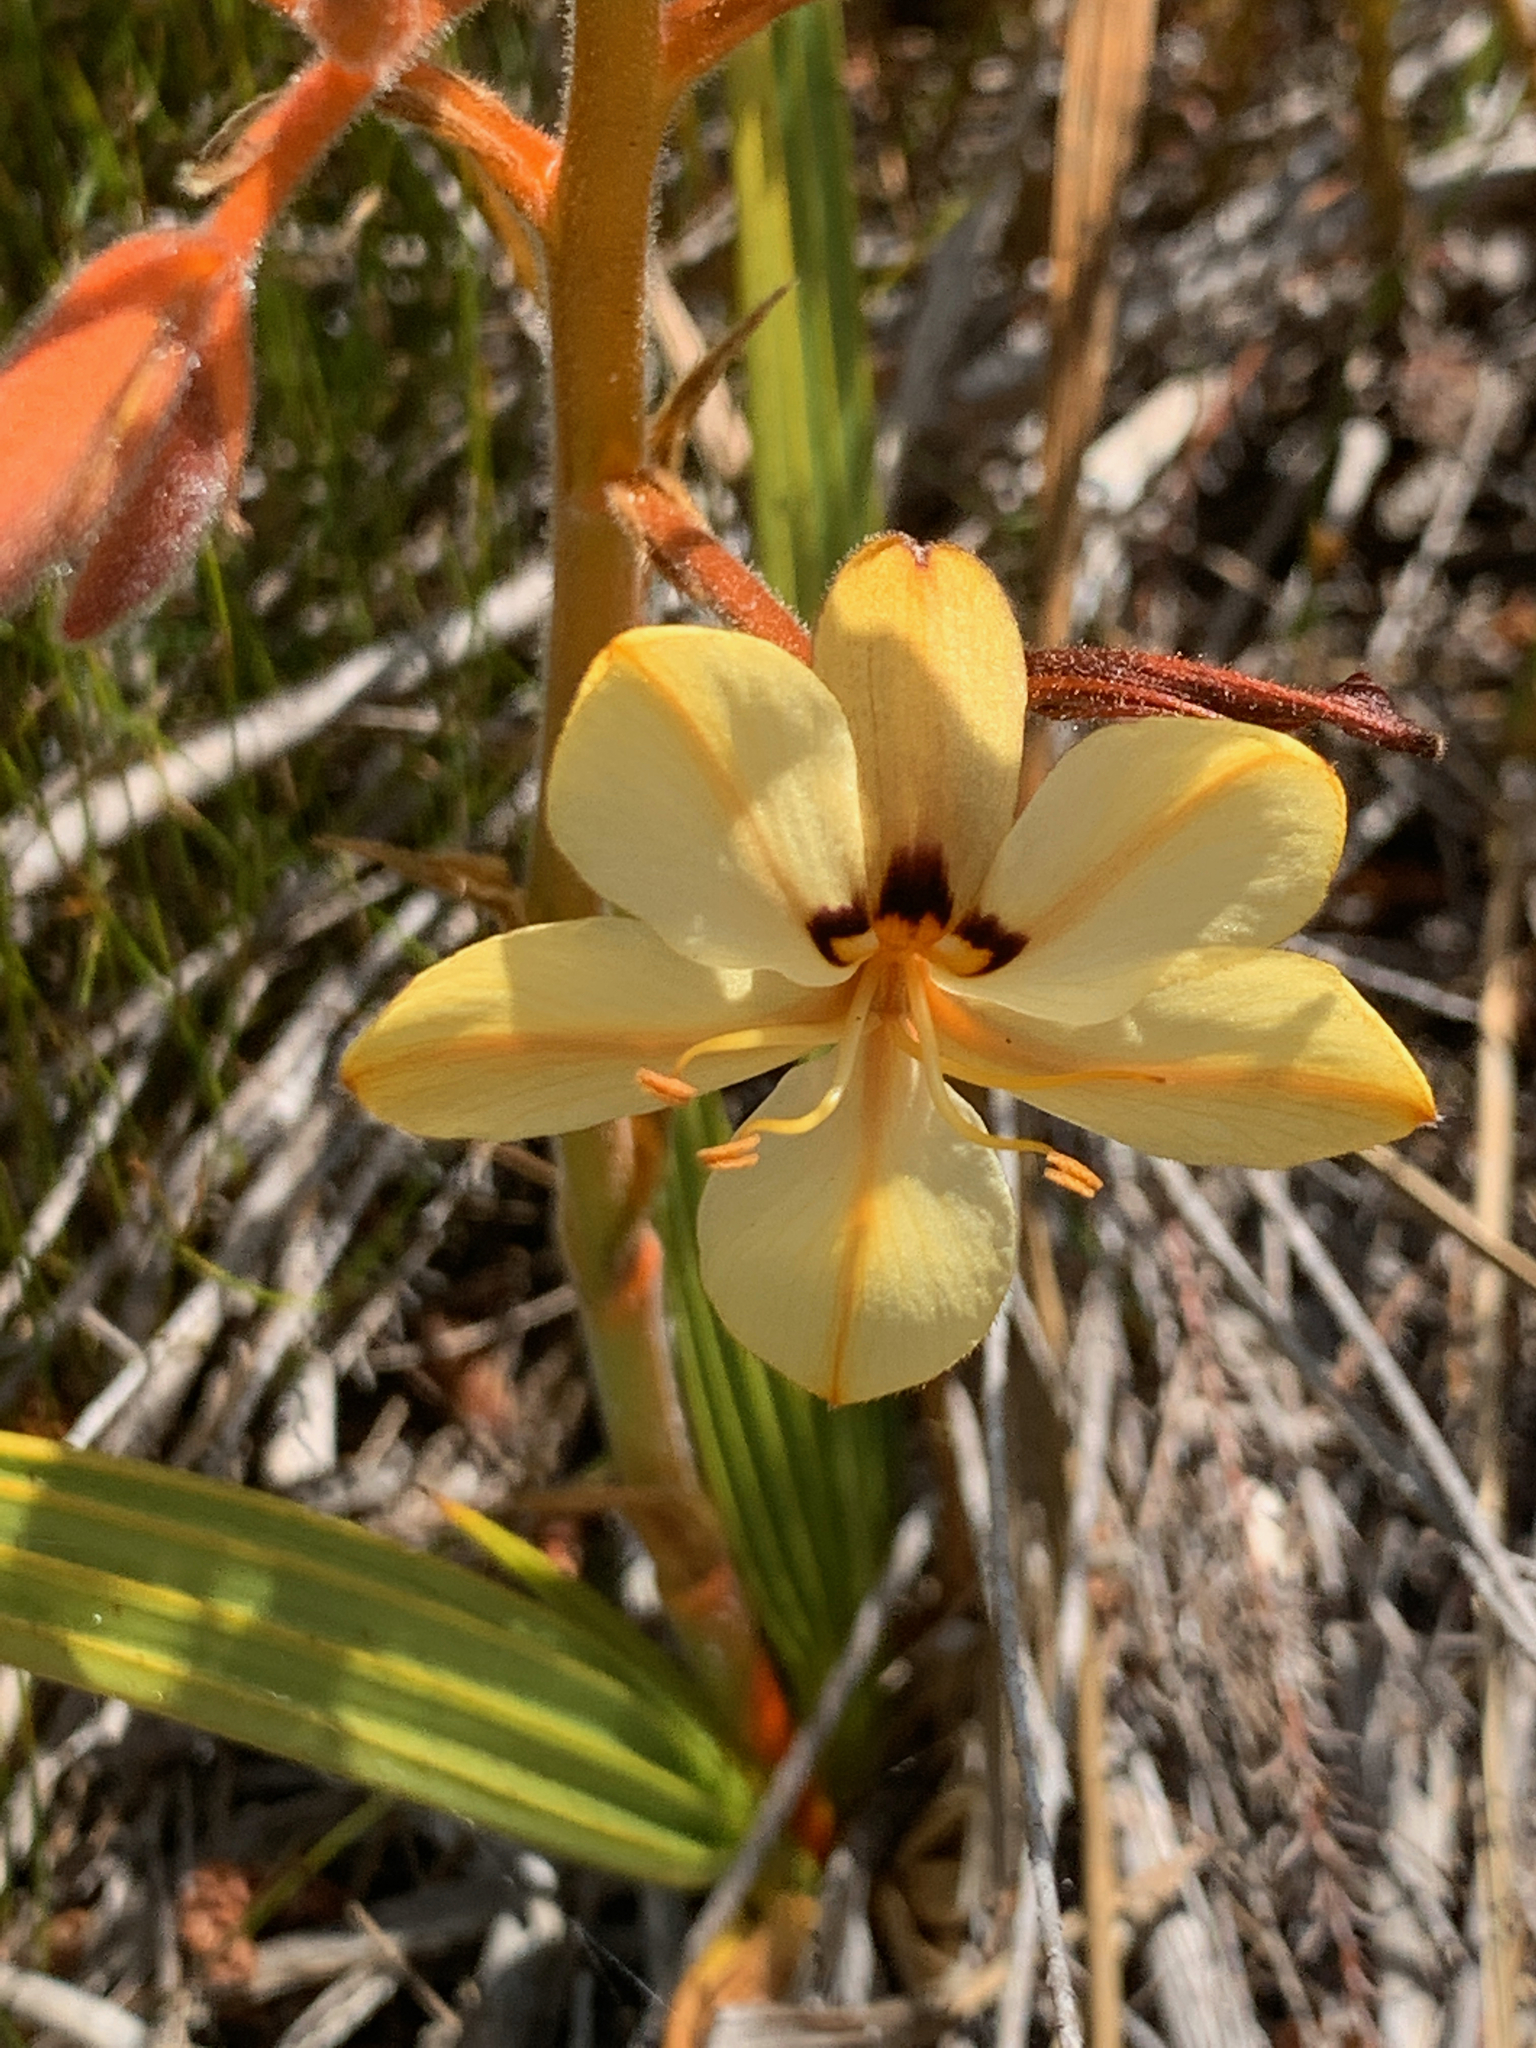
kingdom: Plantae
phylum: Tracheophyta
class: Liliopsida
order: Commelinales
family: Haemodoraceae
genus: Wachendorfia
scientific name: Wachendorfia paniculata
